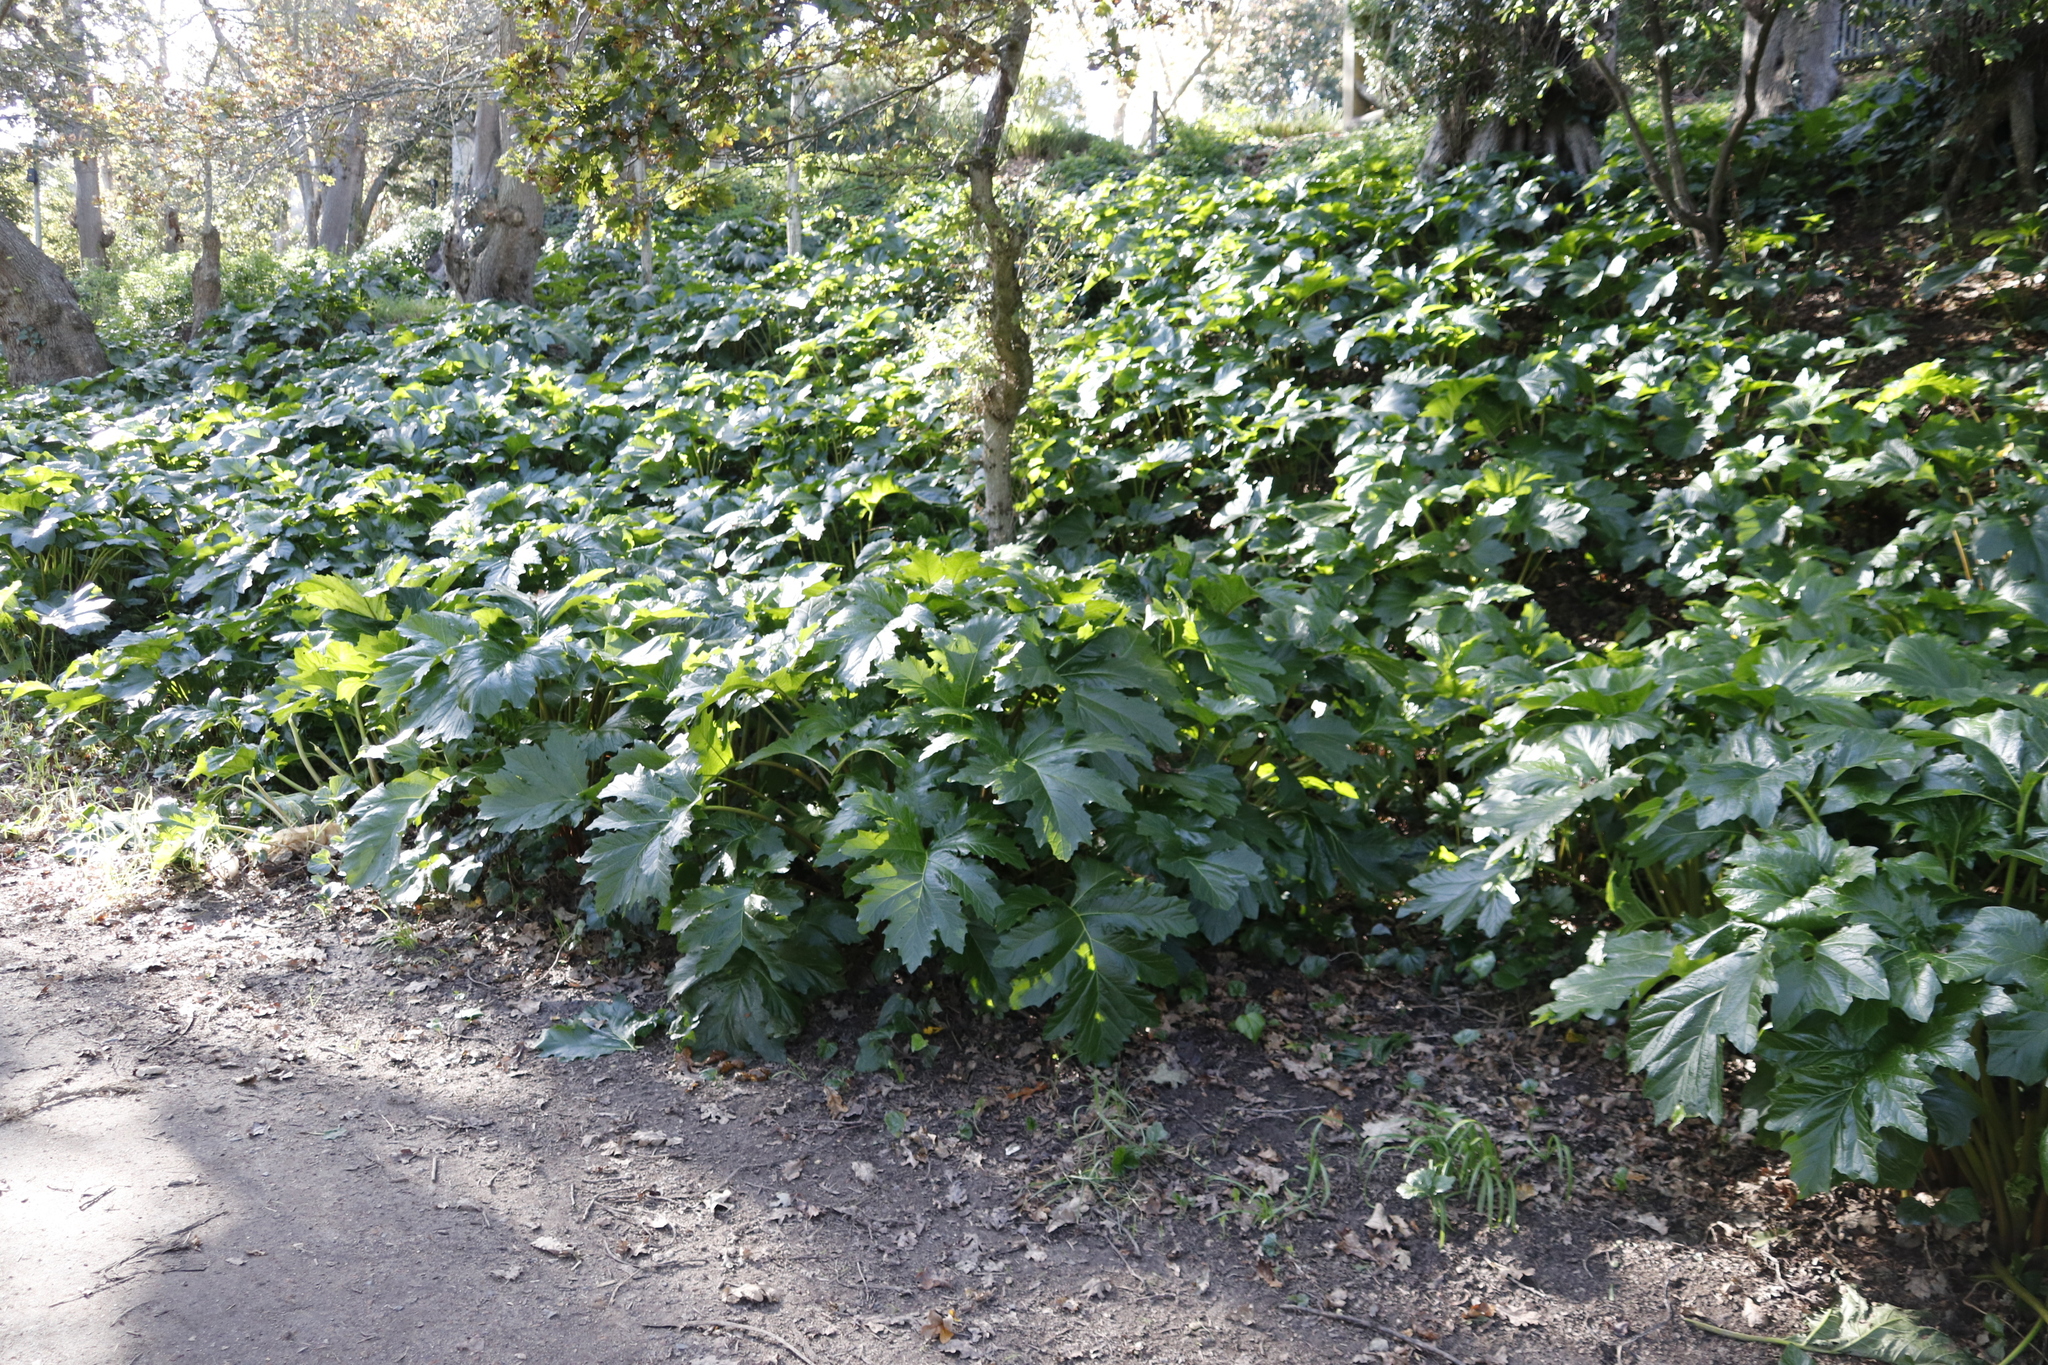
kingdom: Plantae
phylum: Tracheophyta
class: Magnoliopsida
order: Lamiales
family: Acanthaceae
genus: Acanthus
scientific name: Acanthus mollis
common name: Bear's-breech
